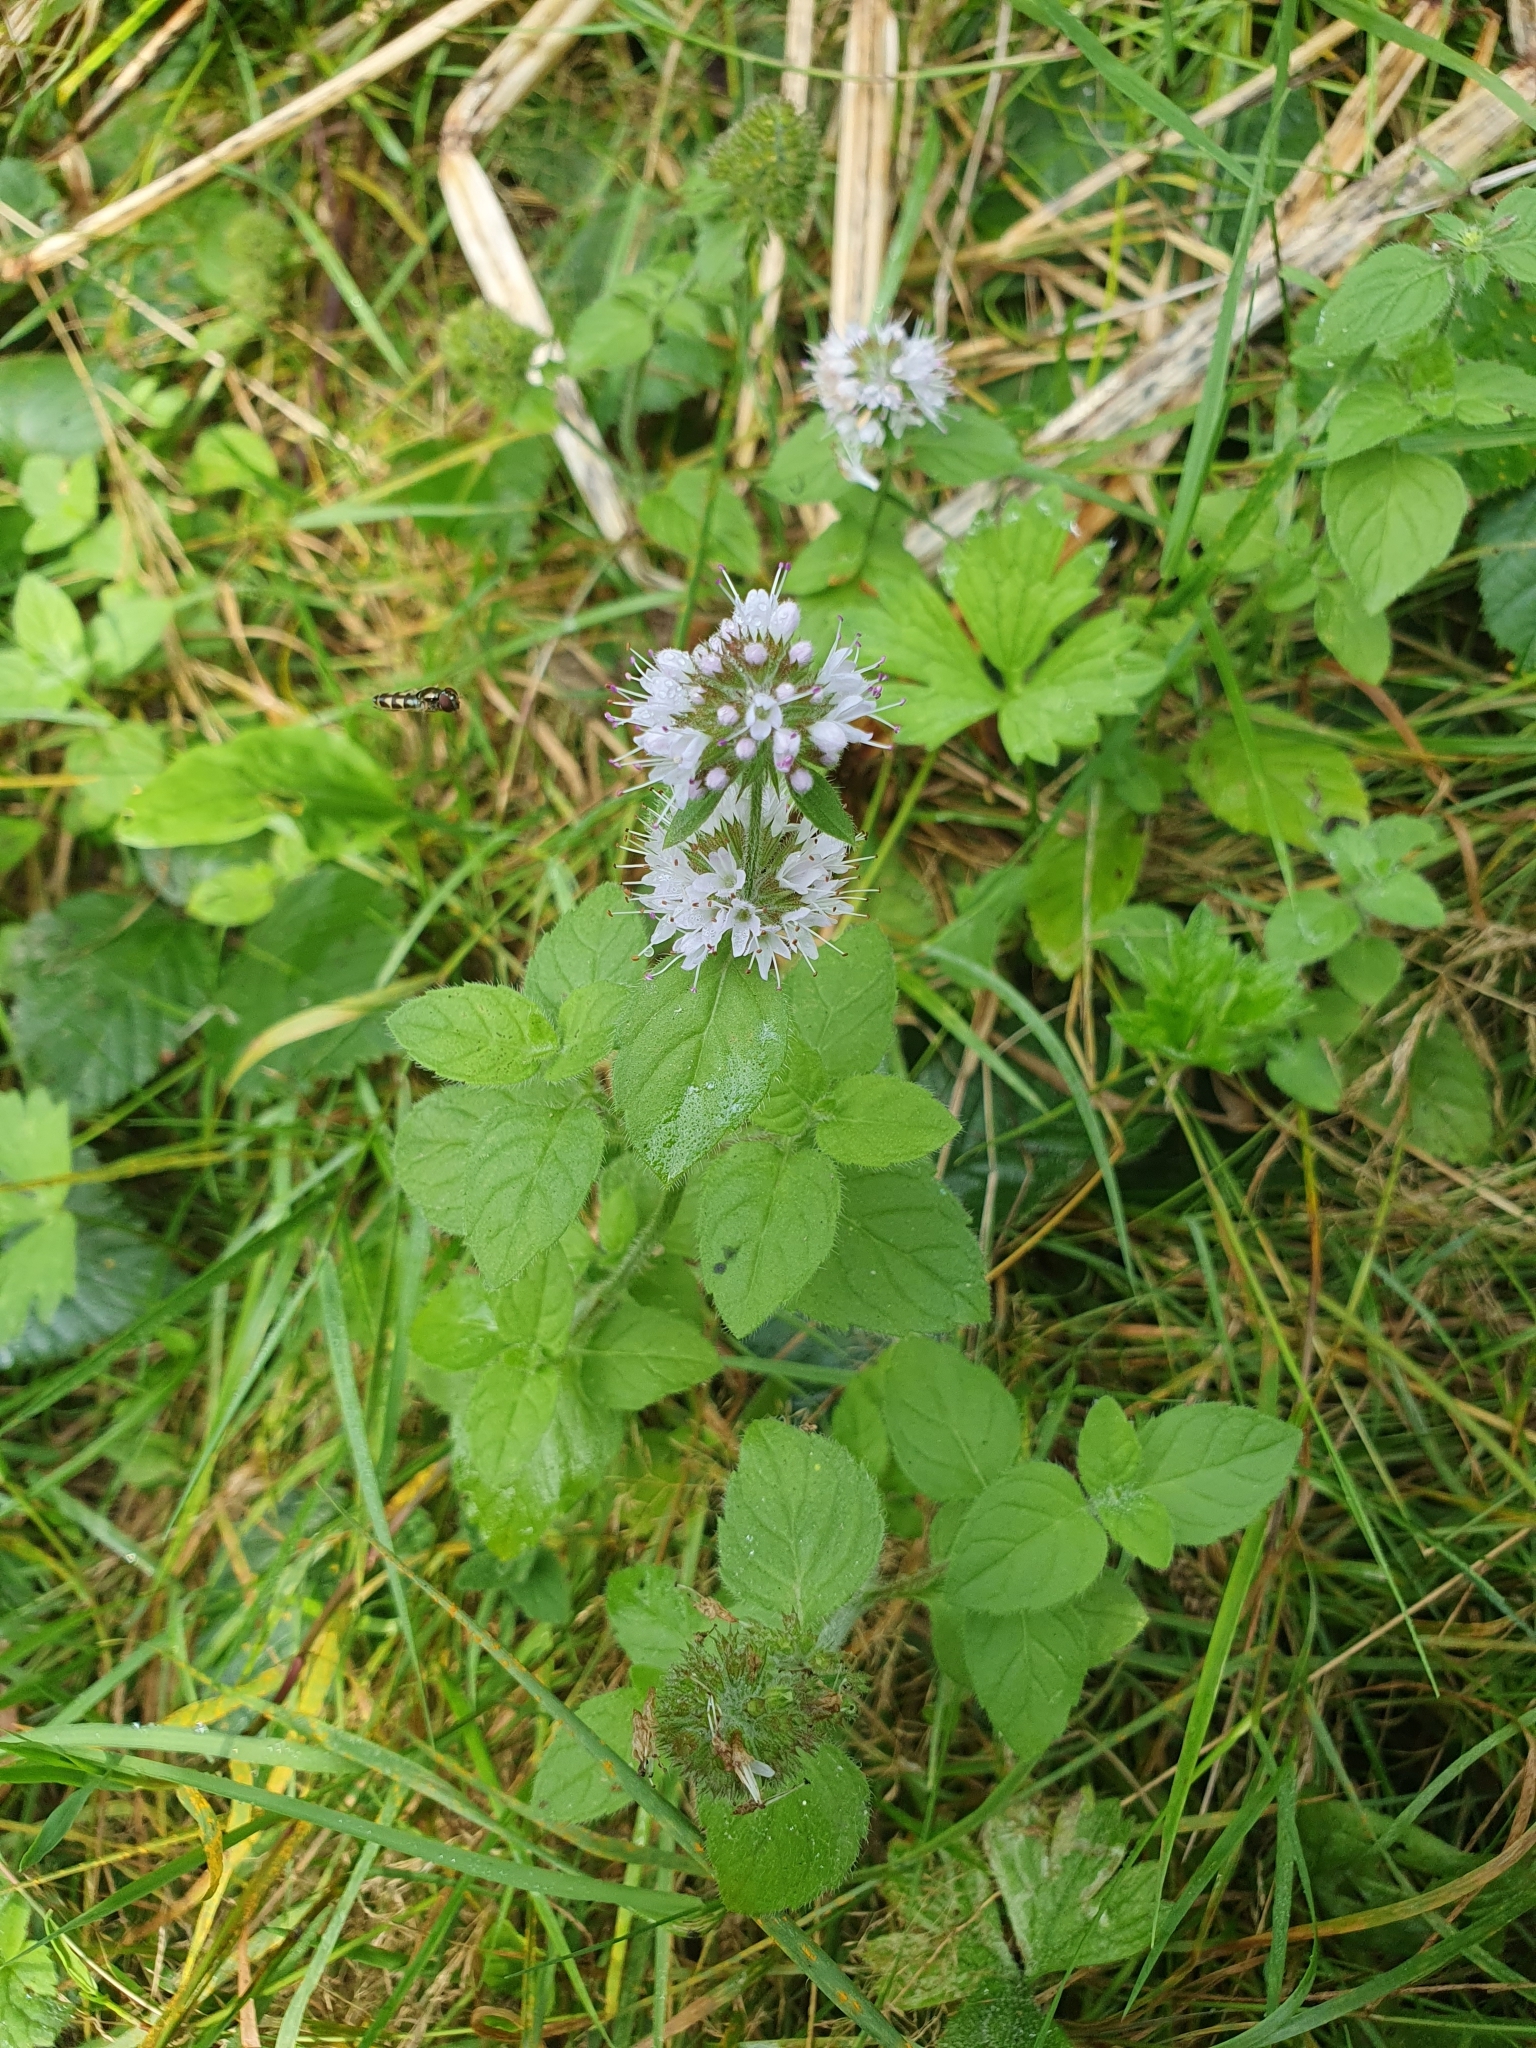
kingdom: Plantae
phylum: Tracheophyta
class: Magnoliopsida
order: Lamiales
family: Lamiaceae
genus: Mentha
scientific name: Mentha aquatica
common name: Water mint
